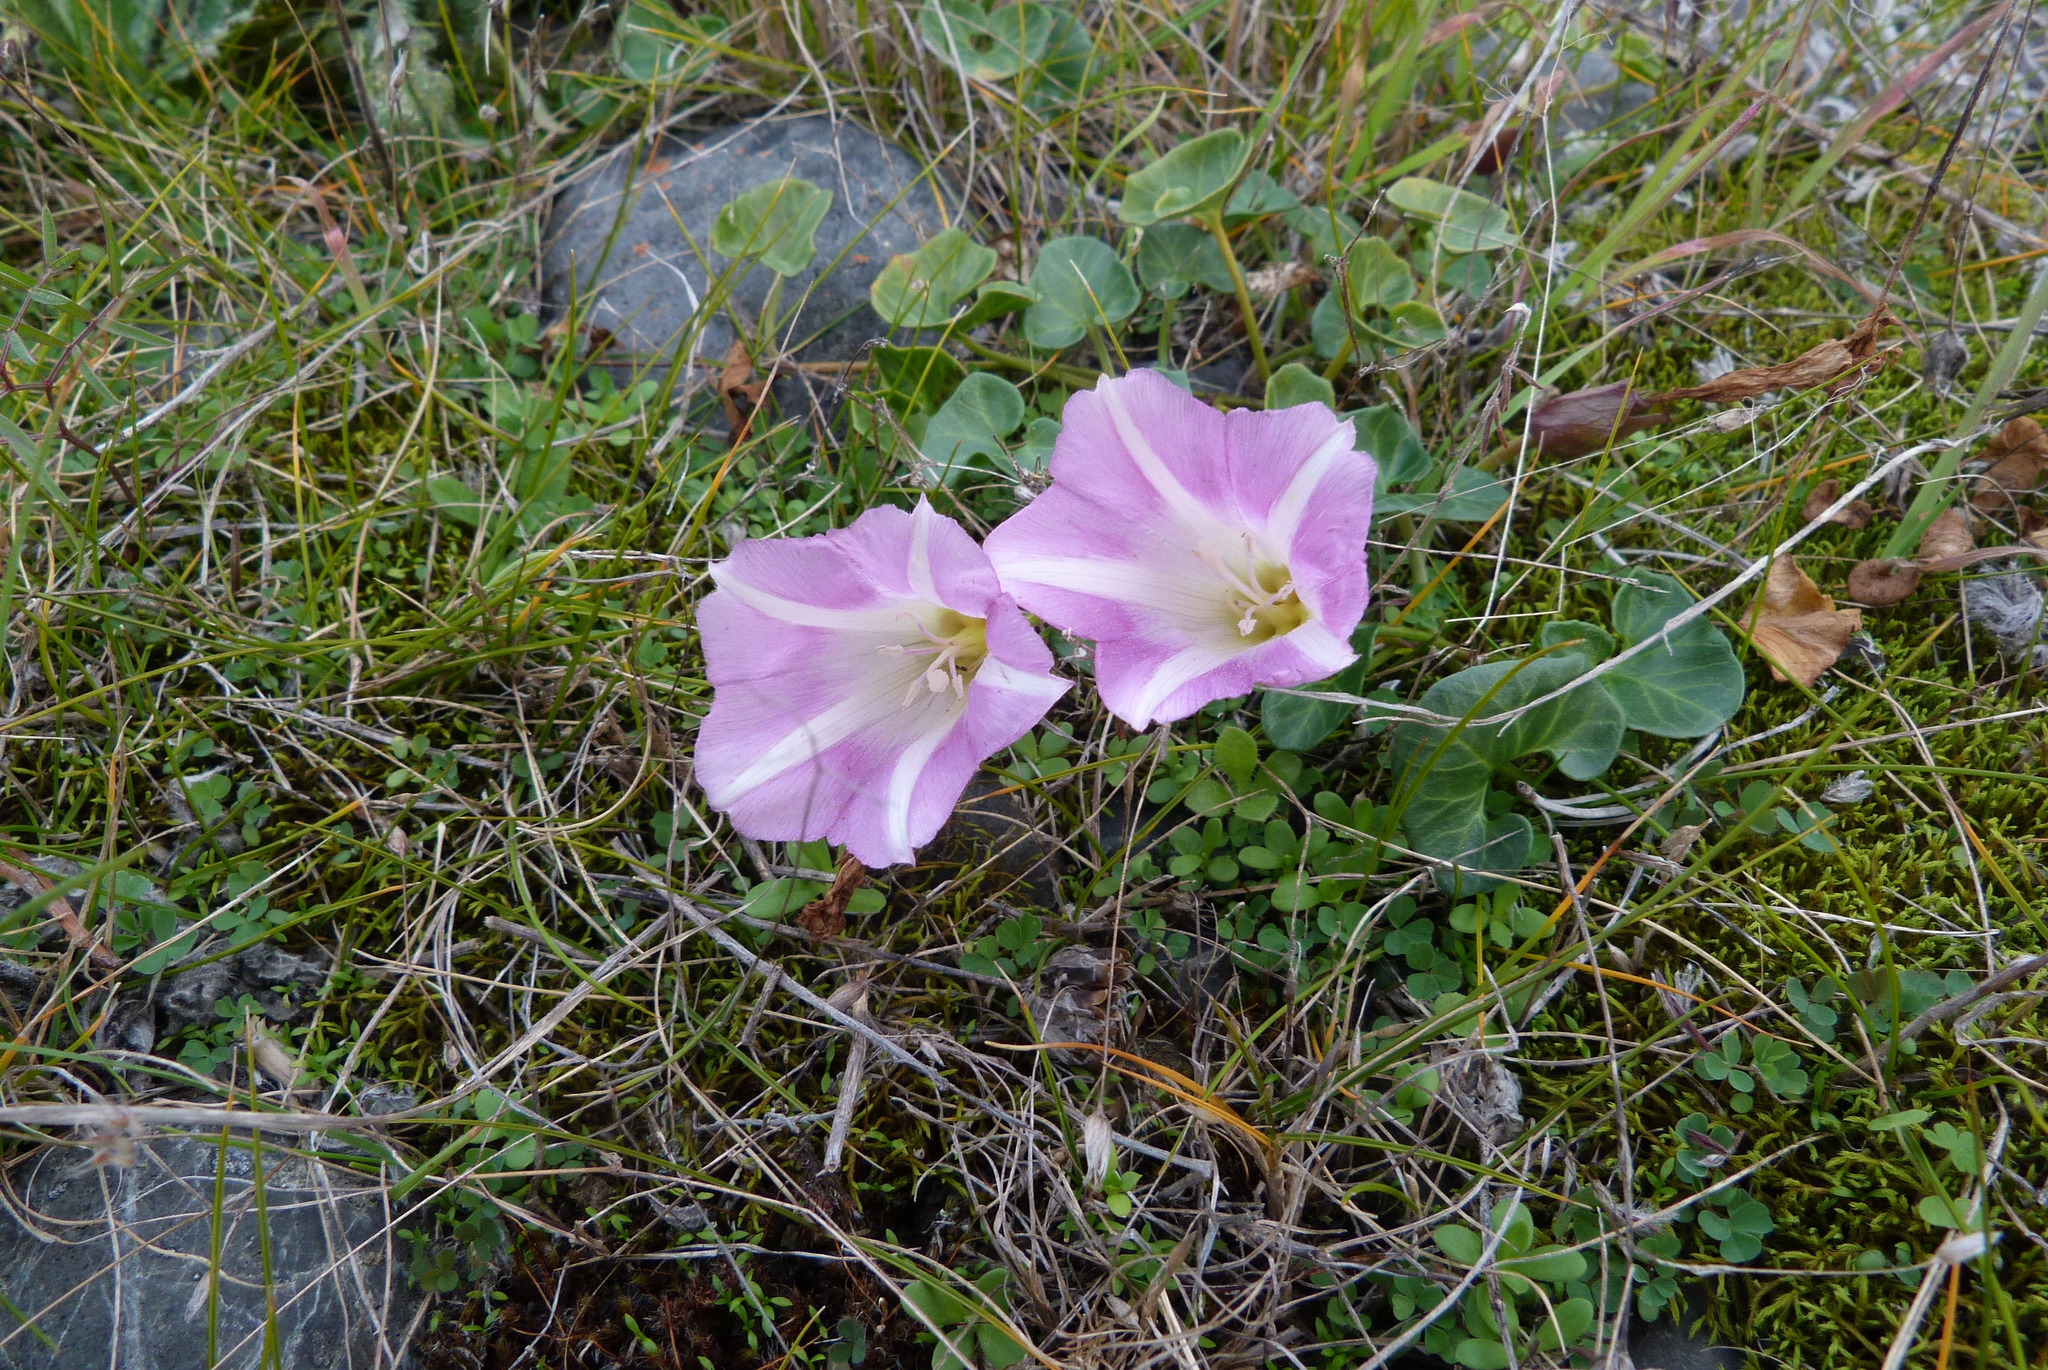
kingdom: Plantae
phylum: Tracheophyta
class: Magnoliopsida
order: Solanales
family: Convolvulaceae
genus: Calystegia
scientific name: Calystegia soldanella
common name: Sea bindweed
